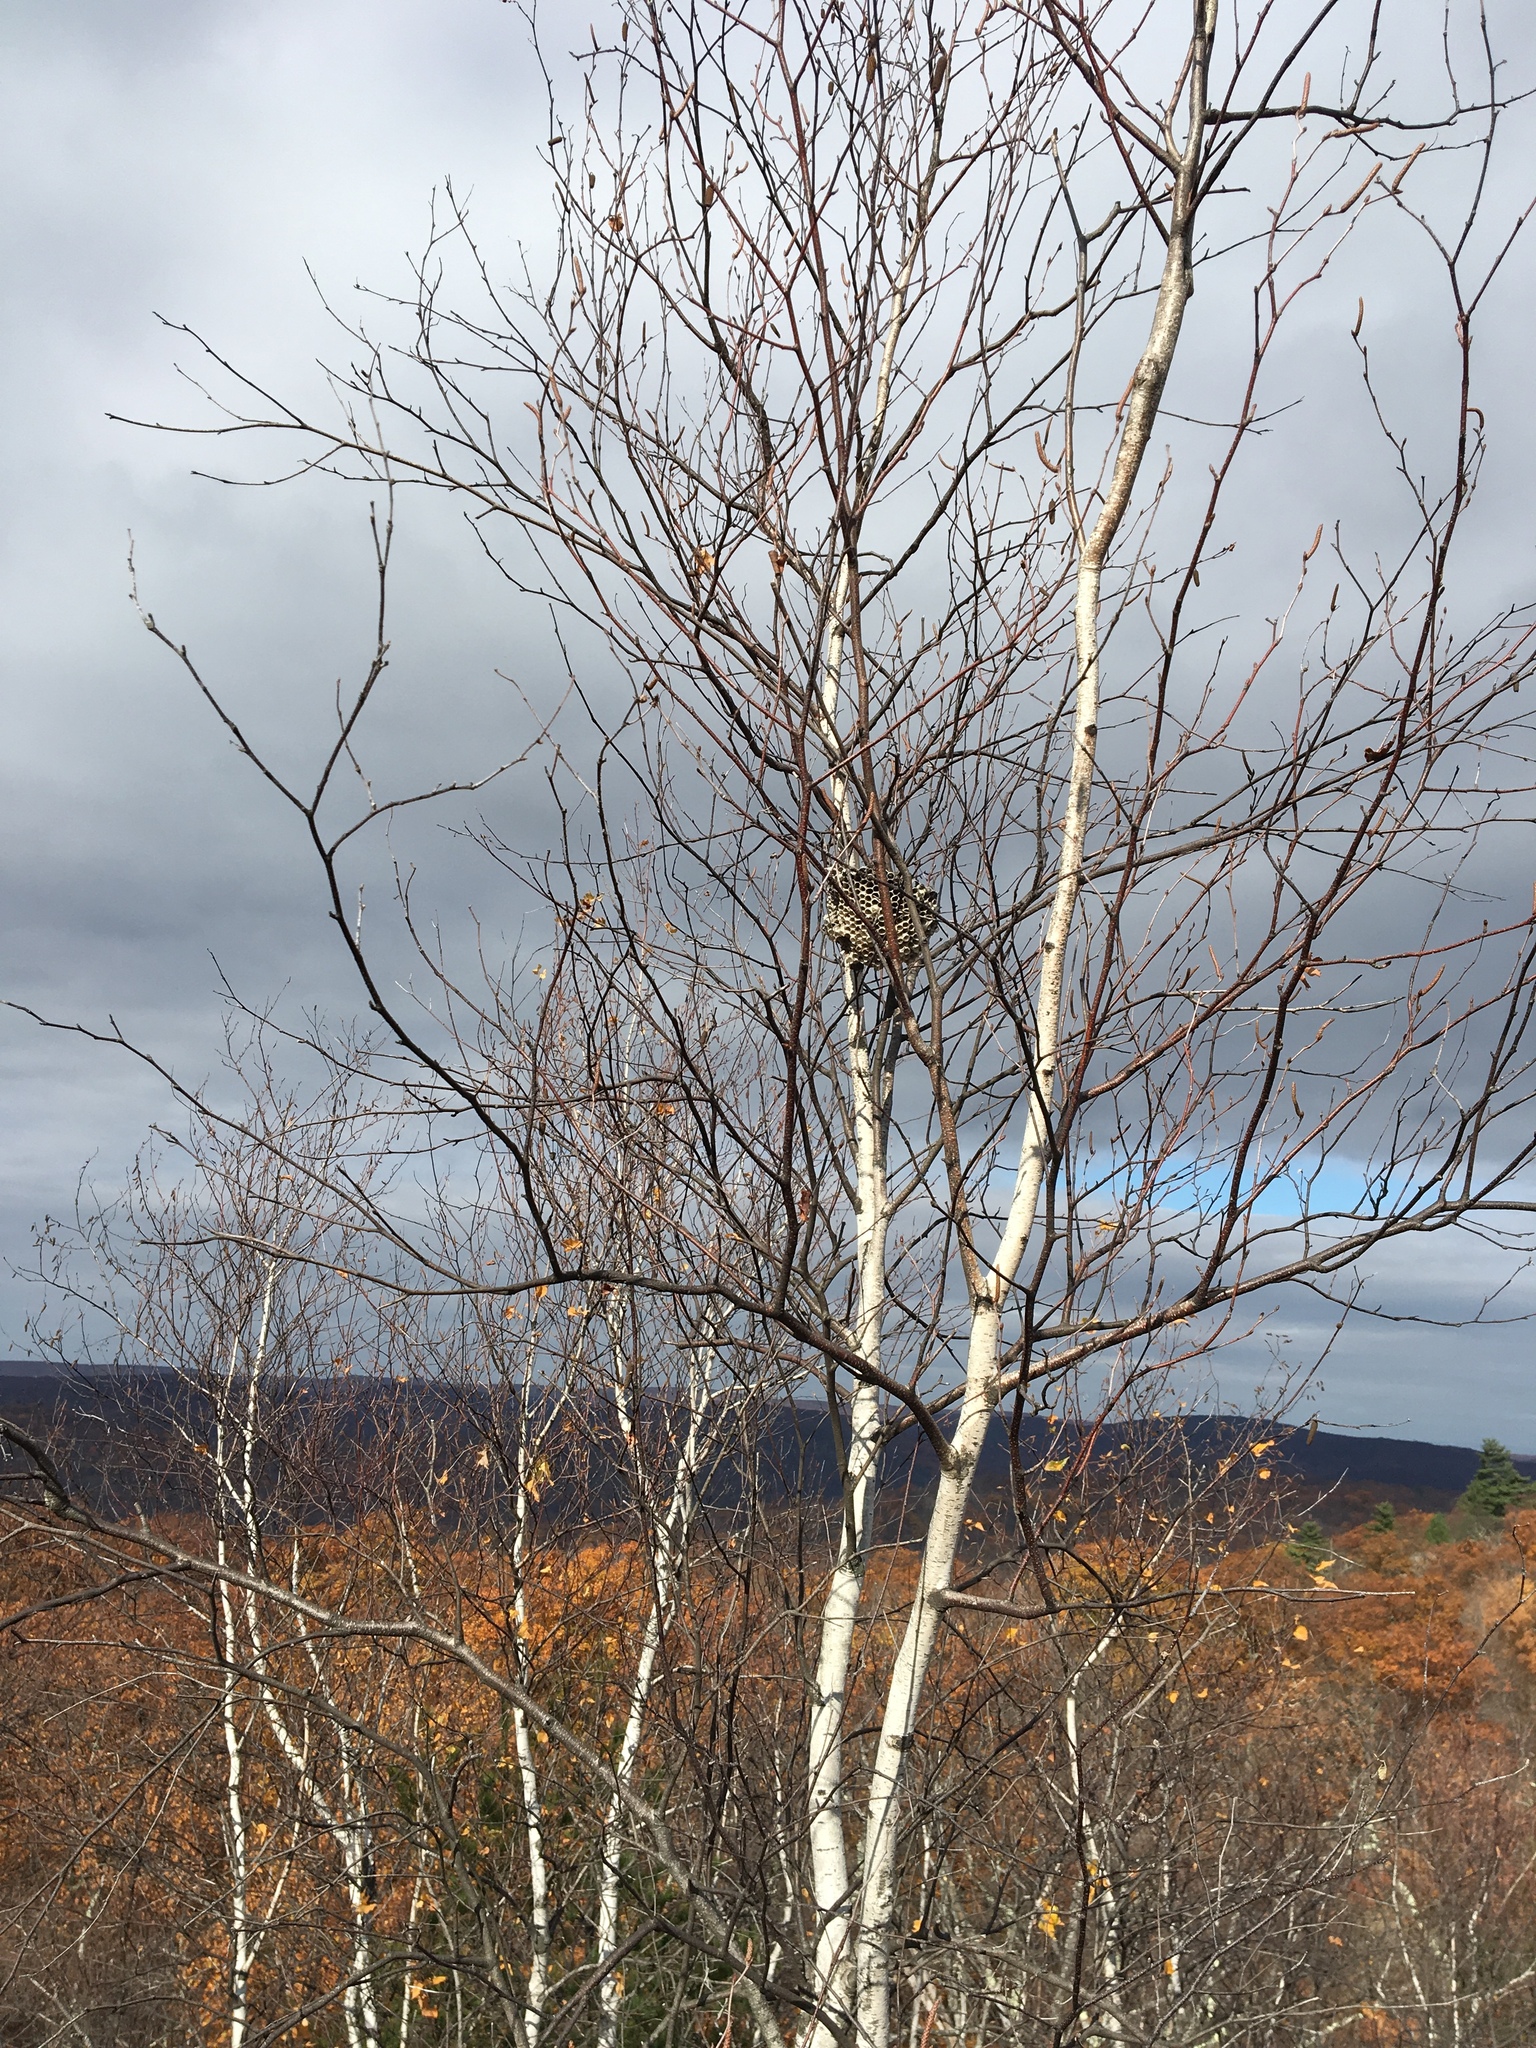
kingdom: Plantae
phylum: Tracheophyta
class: Magnoliopsida
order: Fagales
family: Betulaceae
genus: Betula
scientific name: Betula papyrifera
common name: Paper birch
